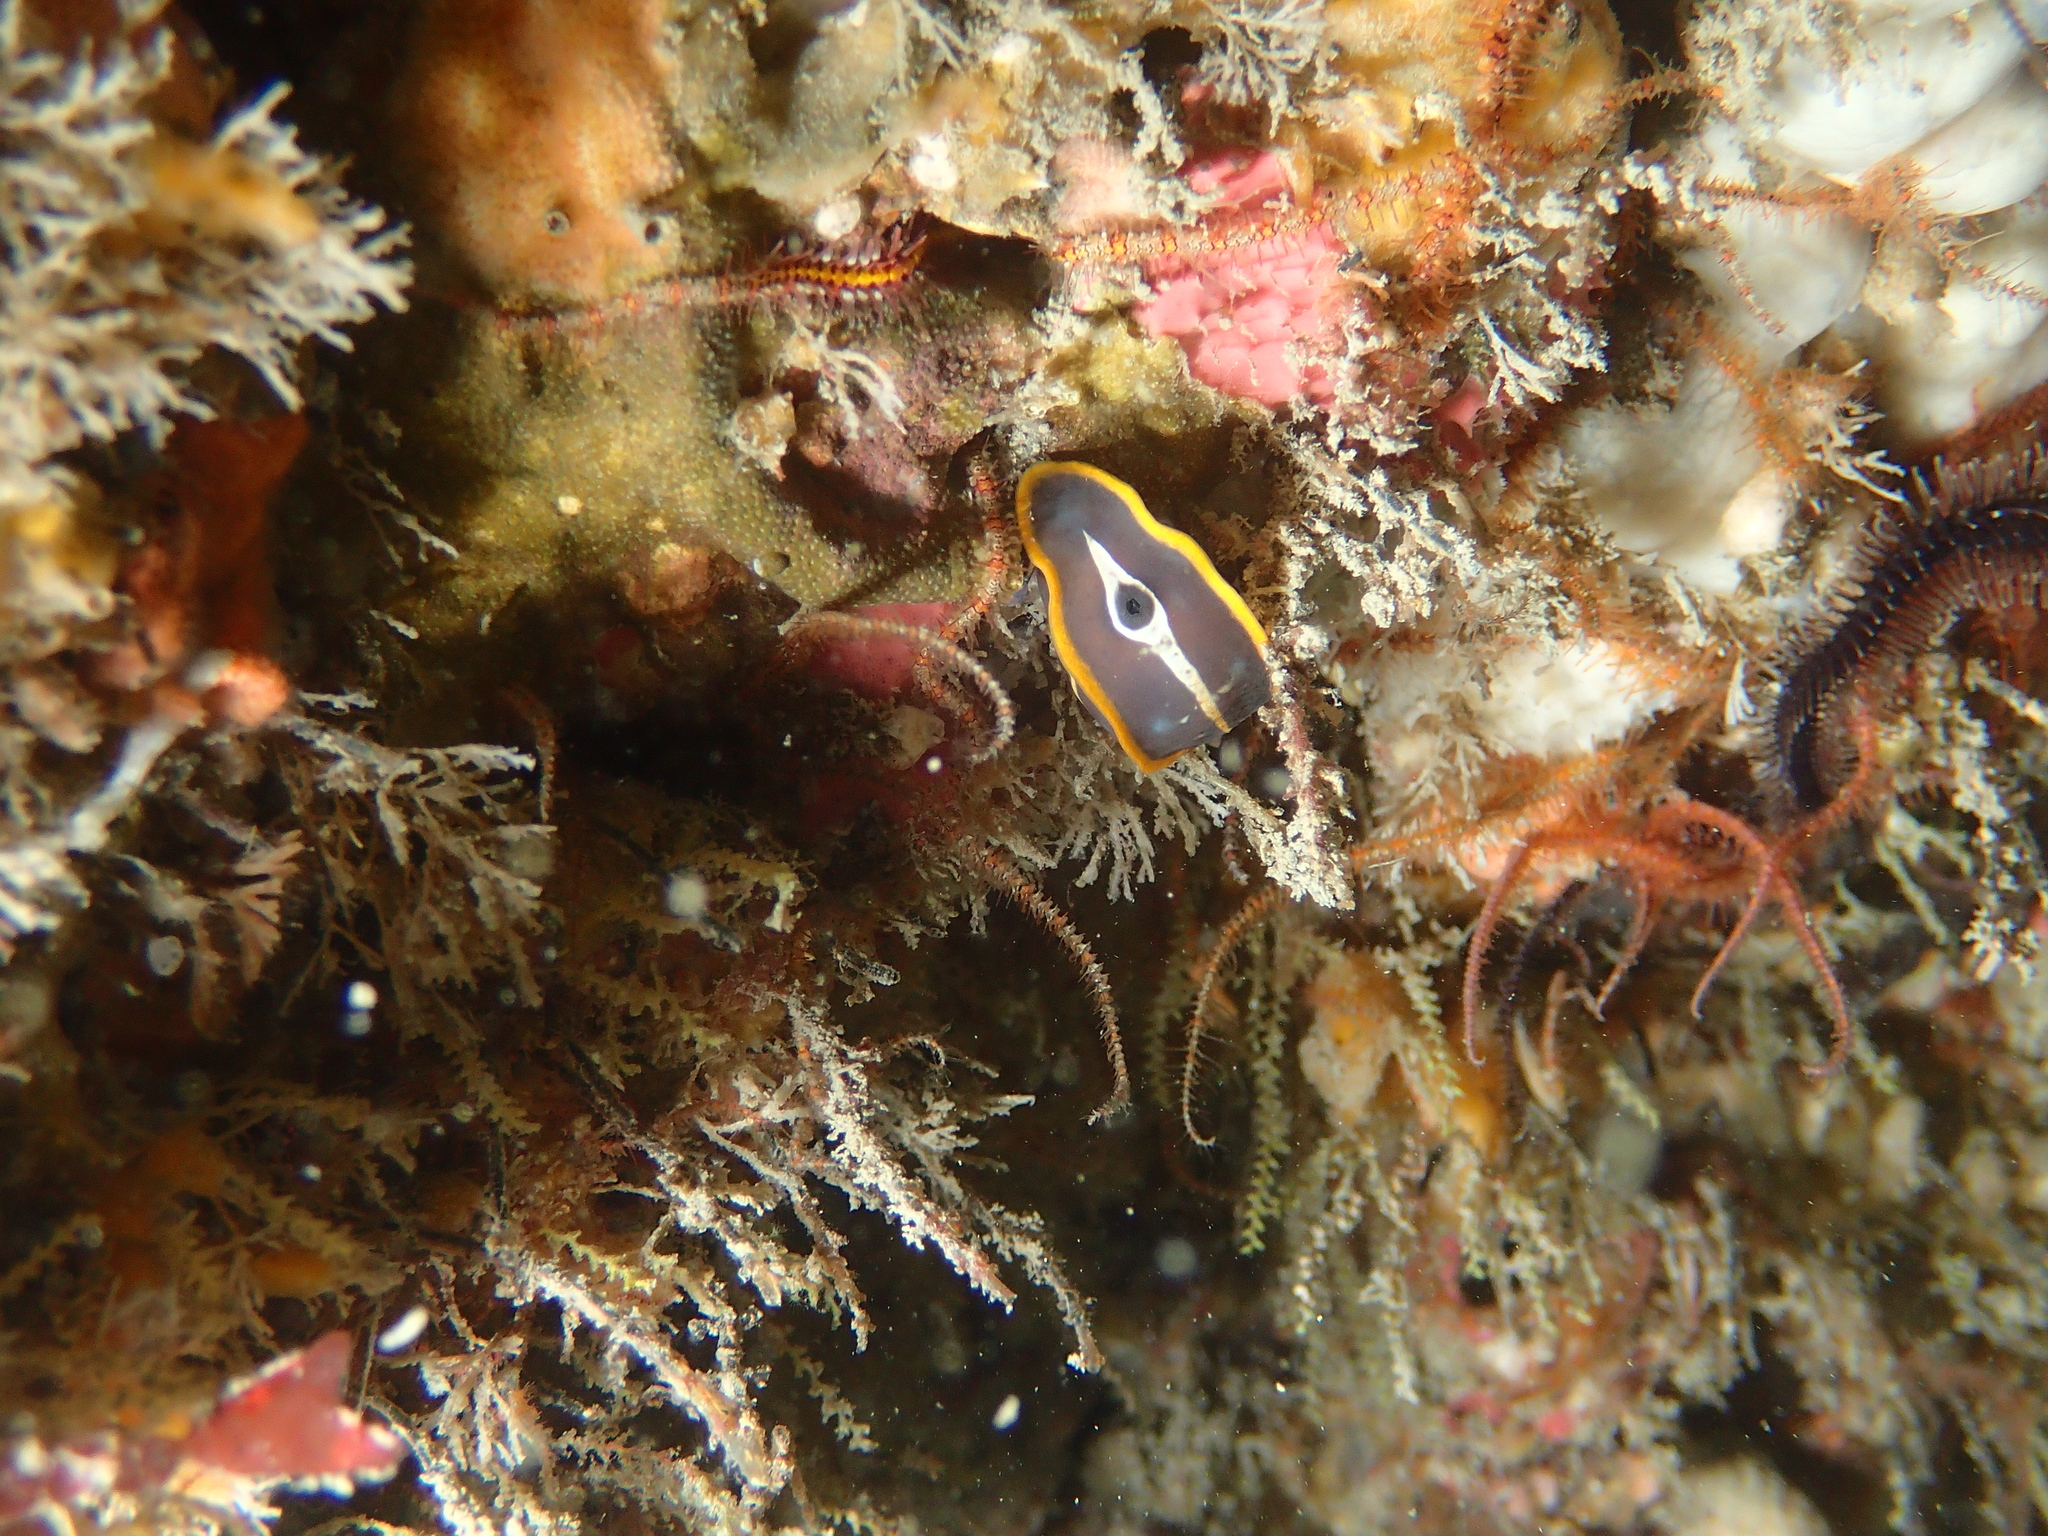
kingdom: Animalia
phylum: Mollusca
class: Gastropoda
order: Nudibranchia
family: Chromodorididae
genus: Felimare
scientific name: Felimare fontandraui
